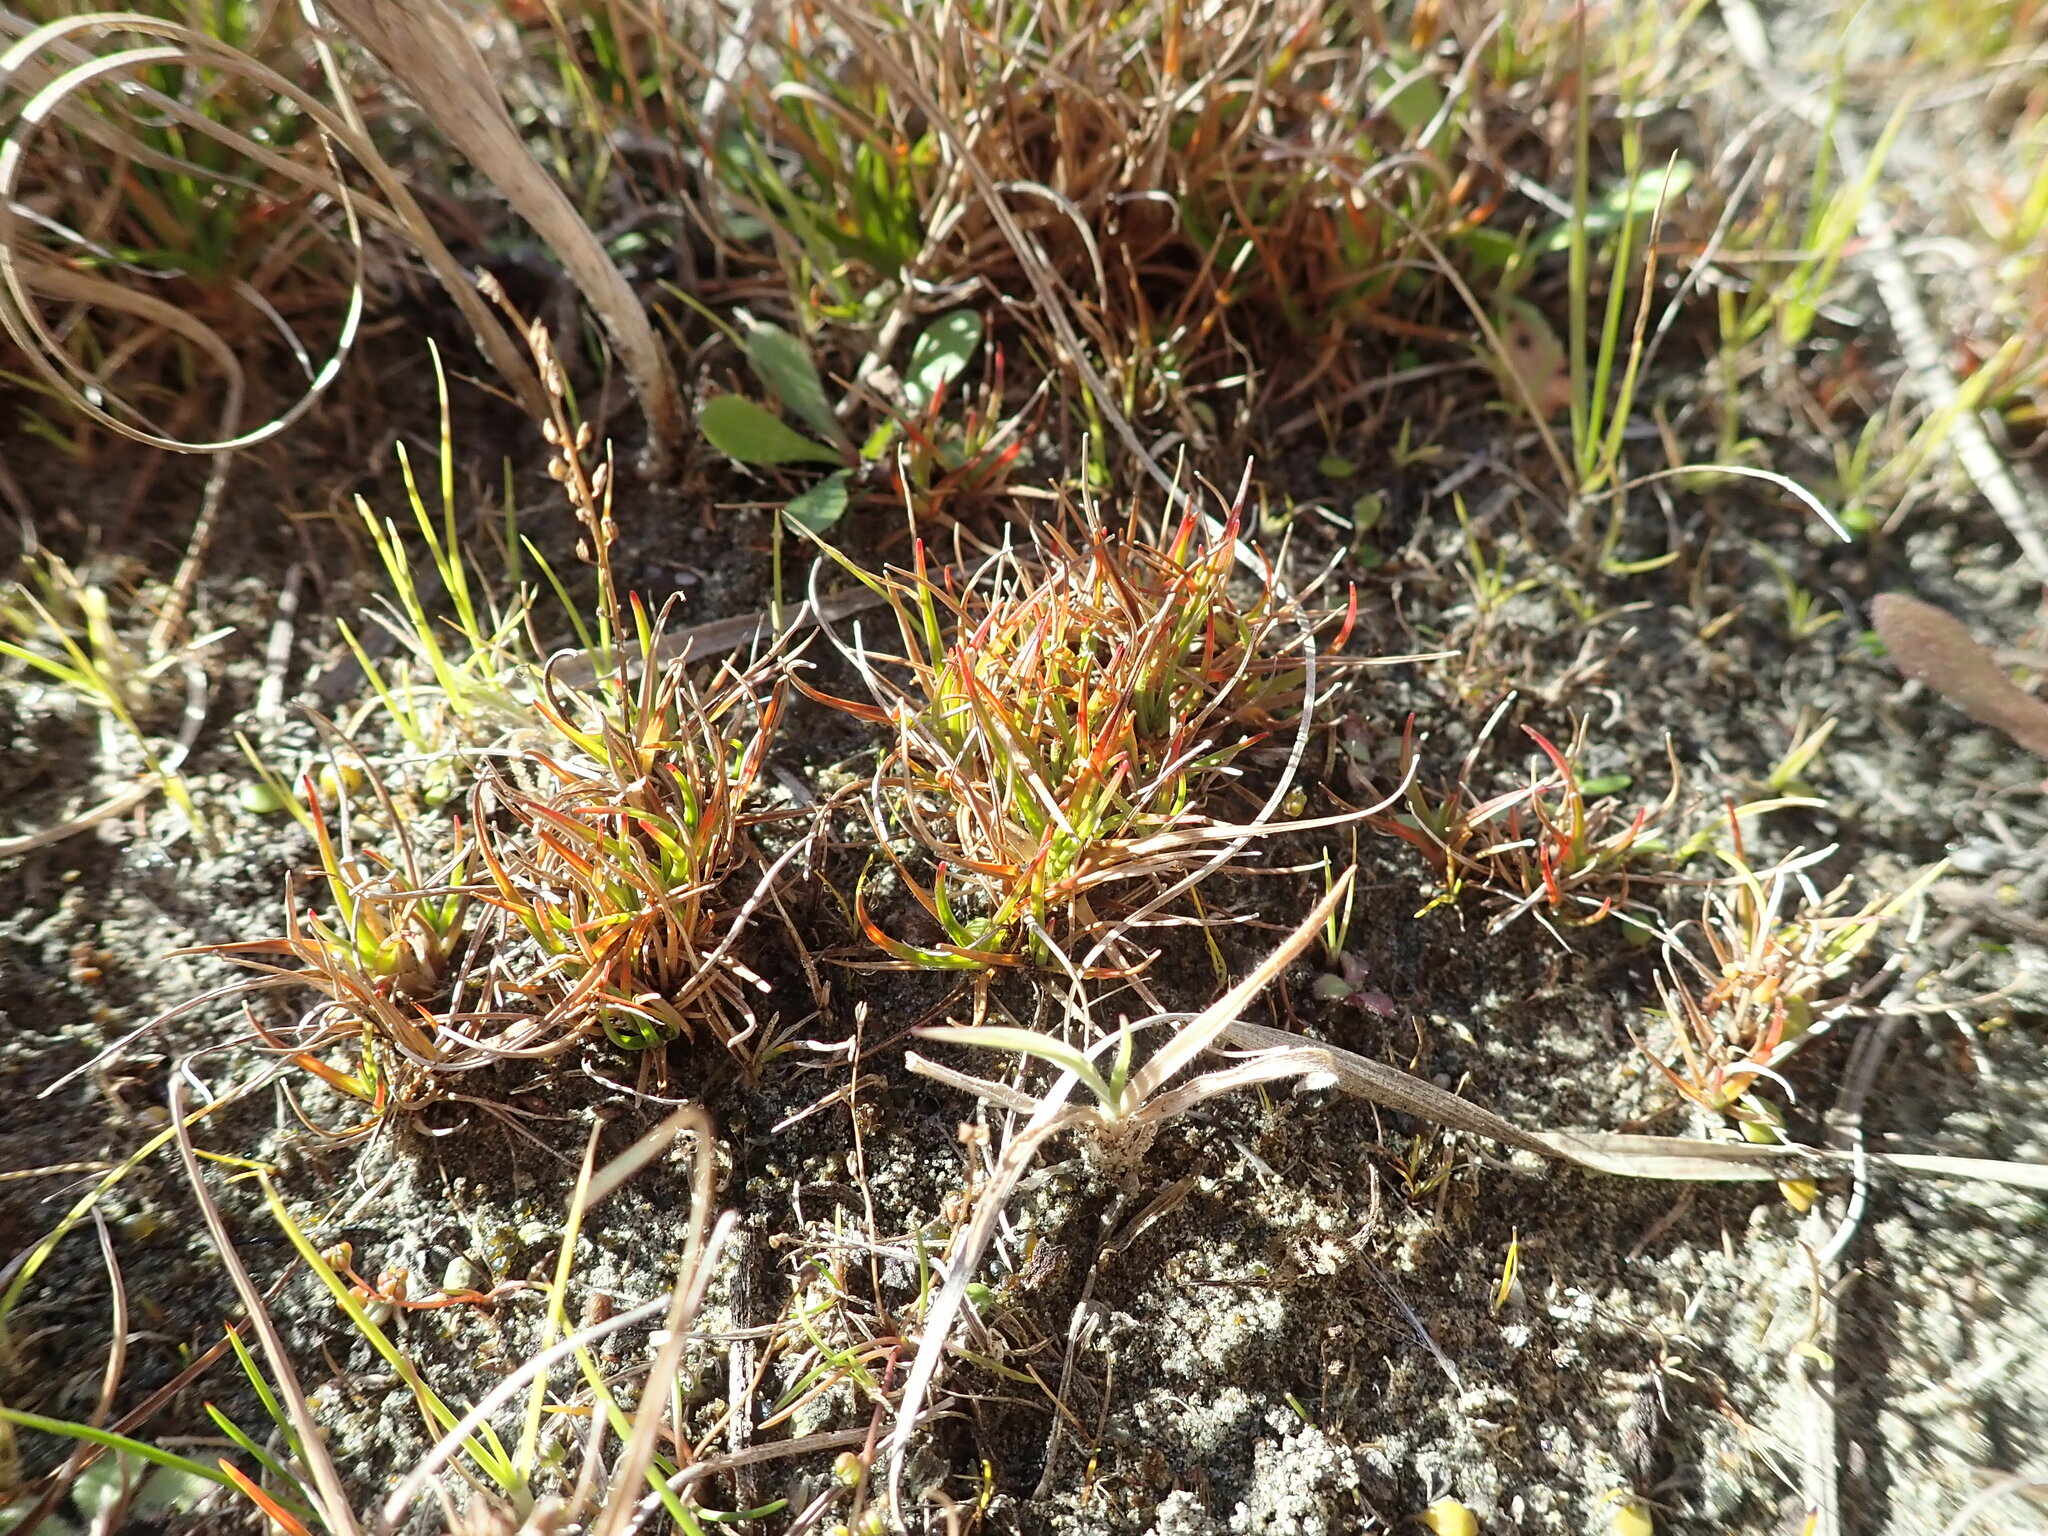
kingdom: Plantae
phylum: Tracheophyta
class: Liliopsida
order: Poales
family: Juncaceae
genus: Juncus
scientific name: Juncus caespiticius
